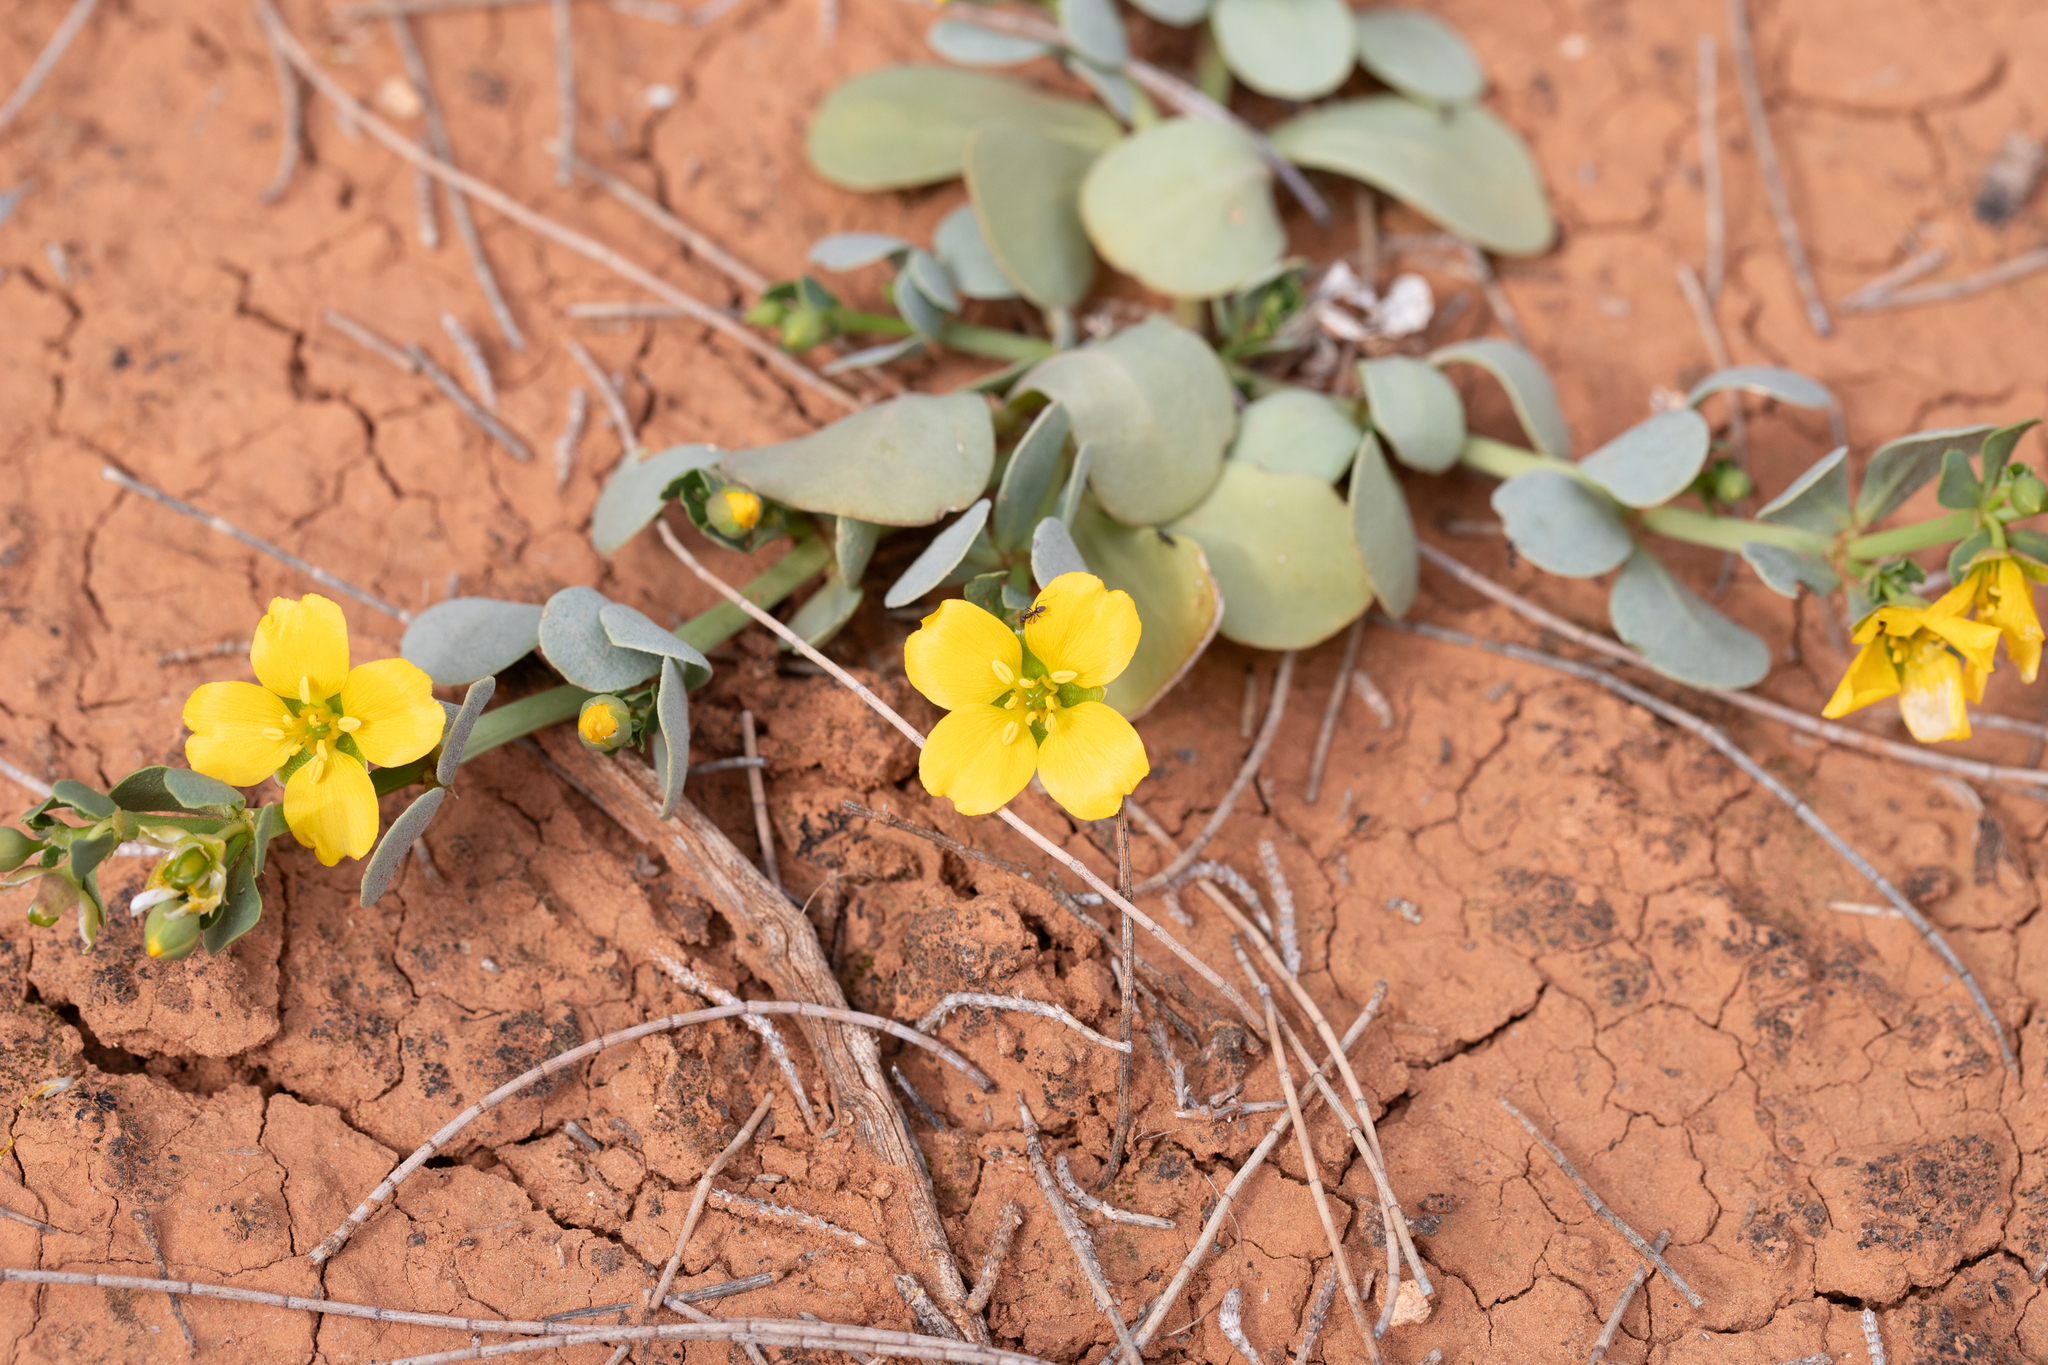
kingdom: Plantae
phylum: Tracheophyta
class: Magnoliopsida
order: Zygophyllales
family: Zygophyllaceae
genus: Roepera
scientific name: Roepera glauca
